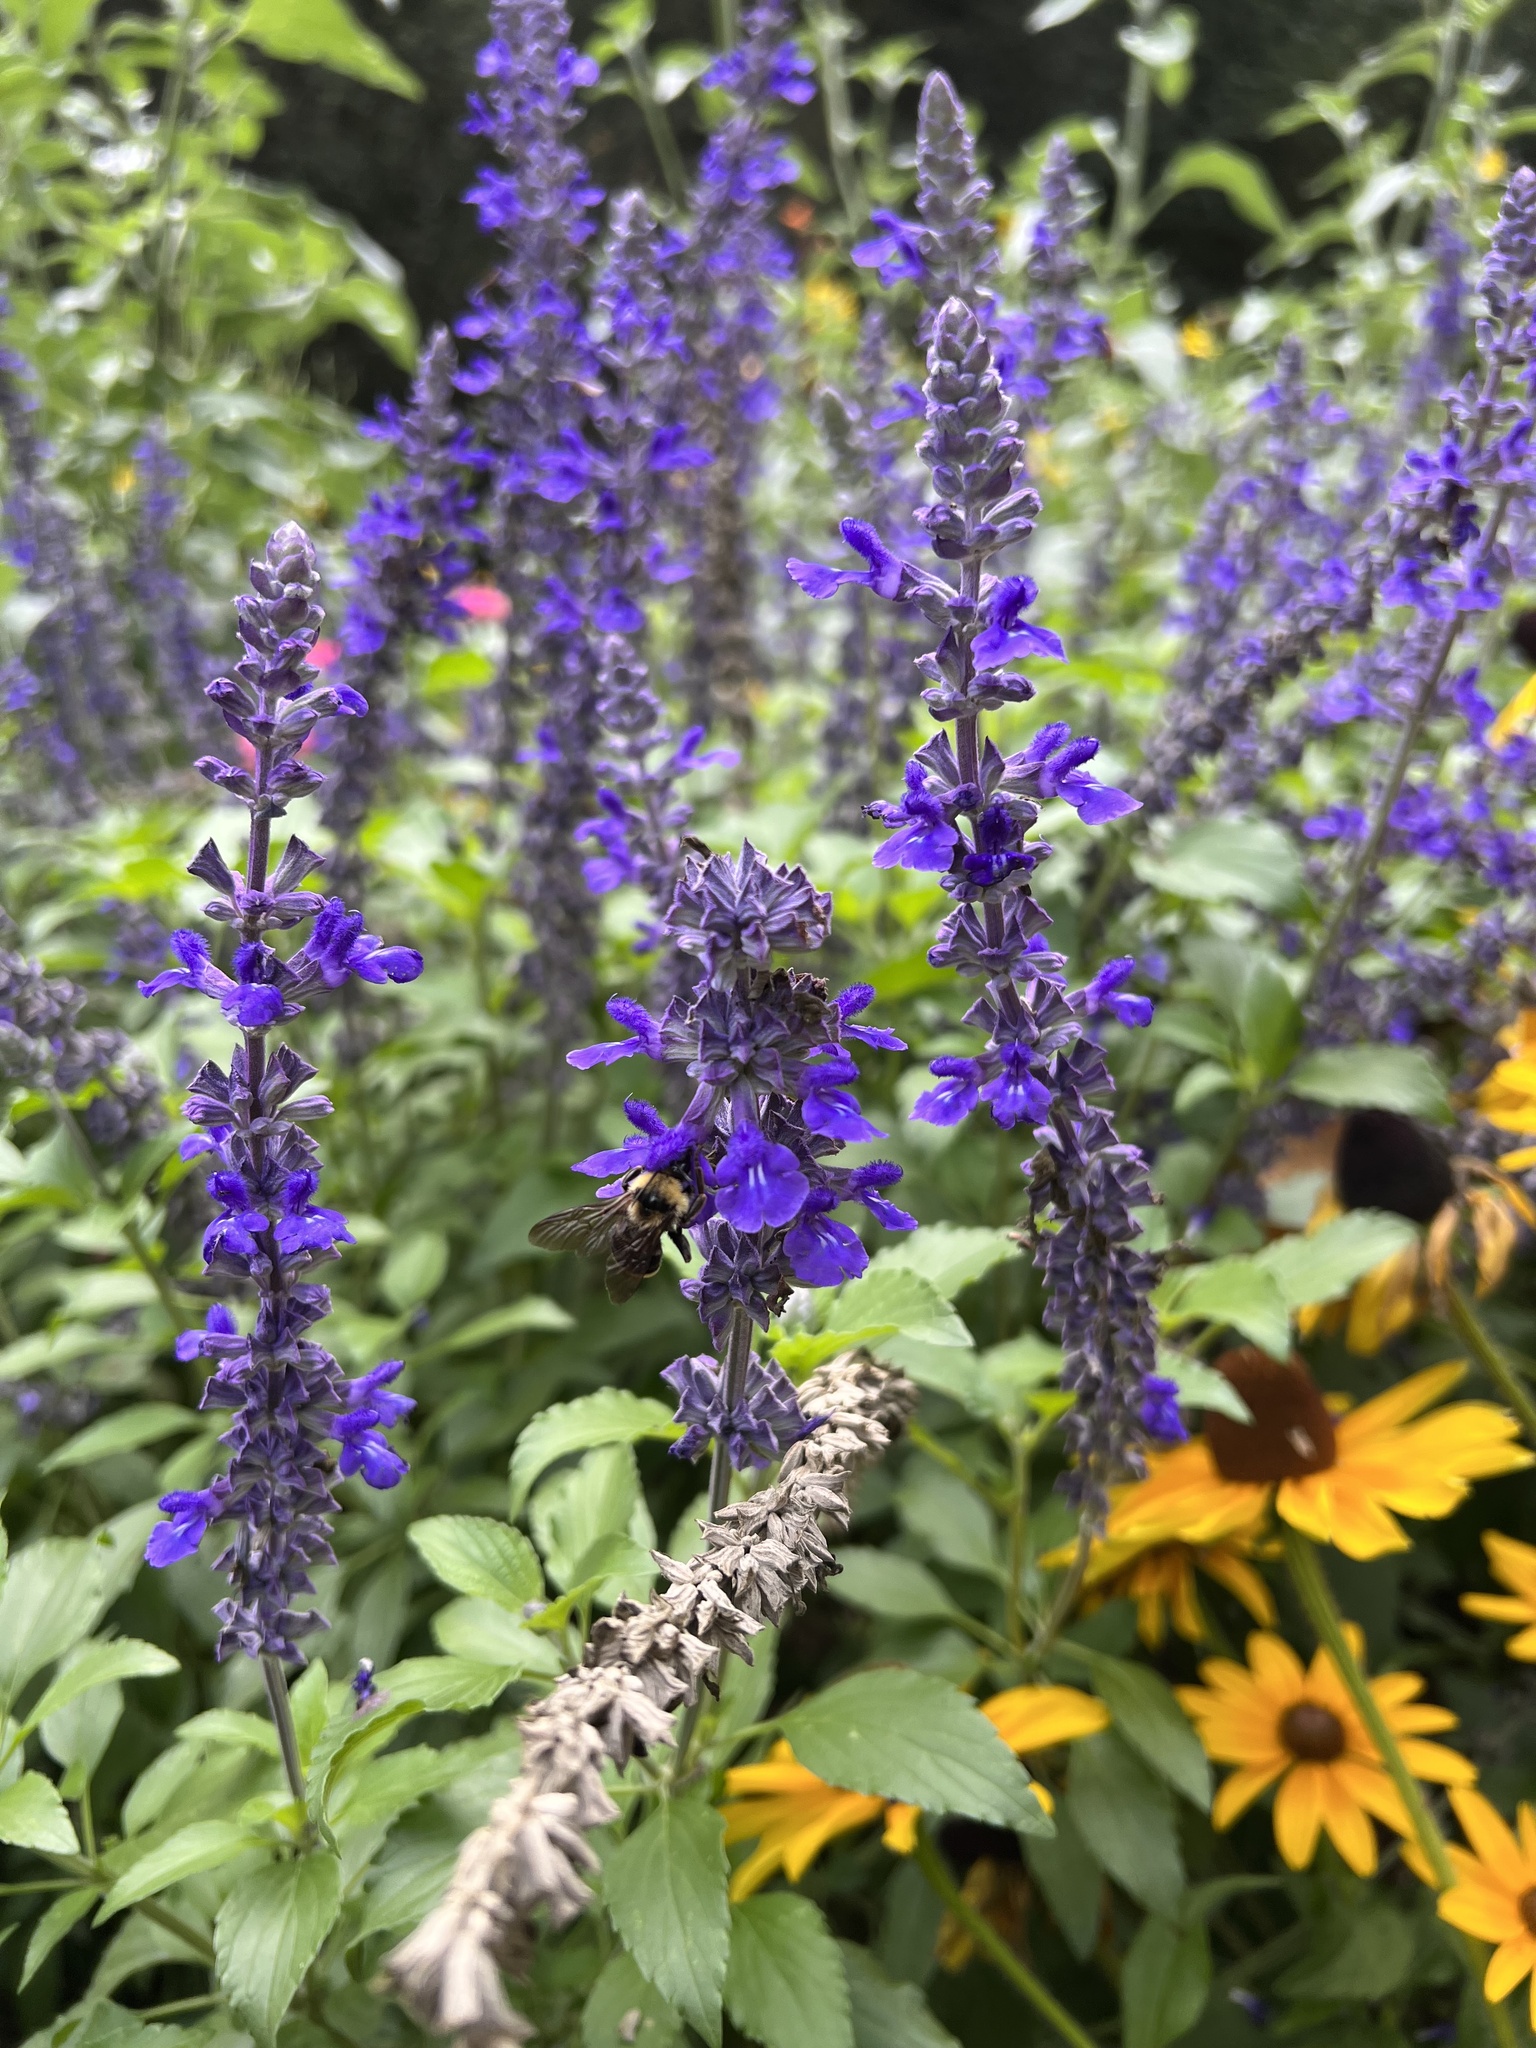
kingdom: Animalia
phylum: Arthropoda
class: Insecta
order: Hymenoptera
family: Apidae
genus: Bombus
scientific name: Bombus californicus
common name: California bumble bee
